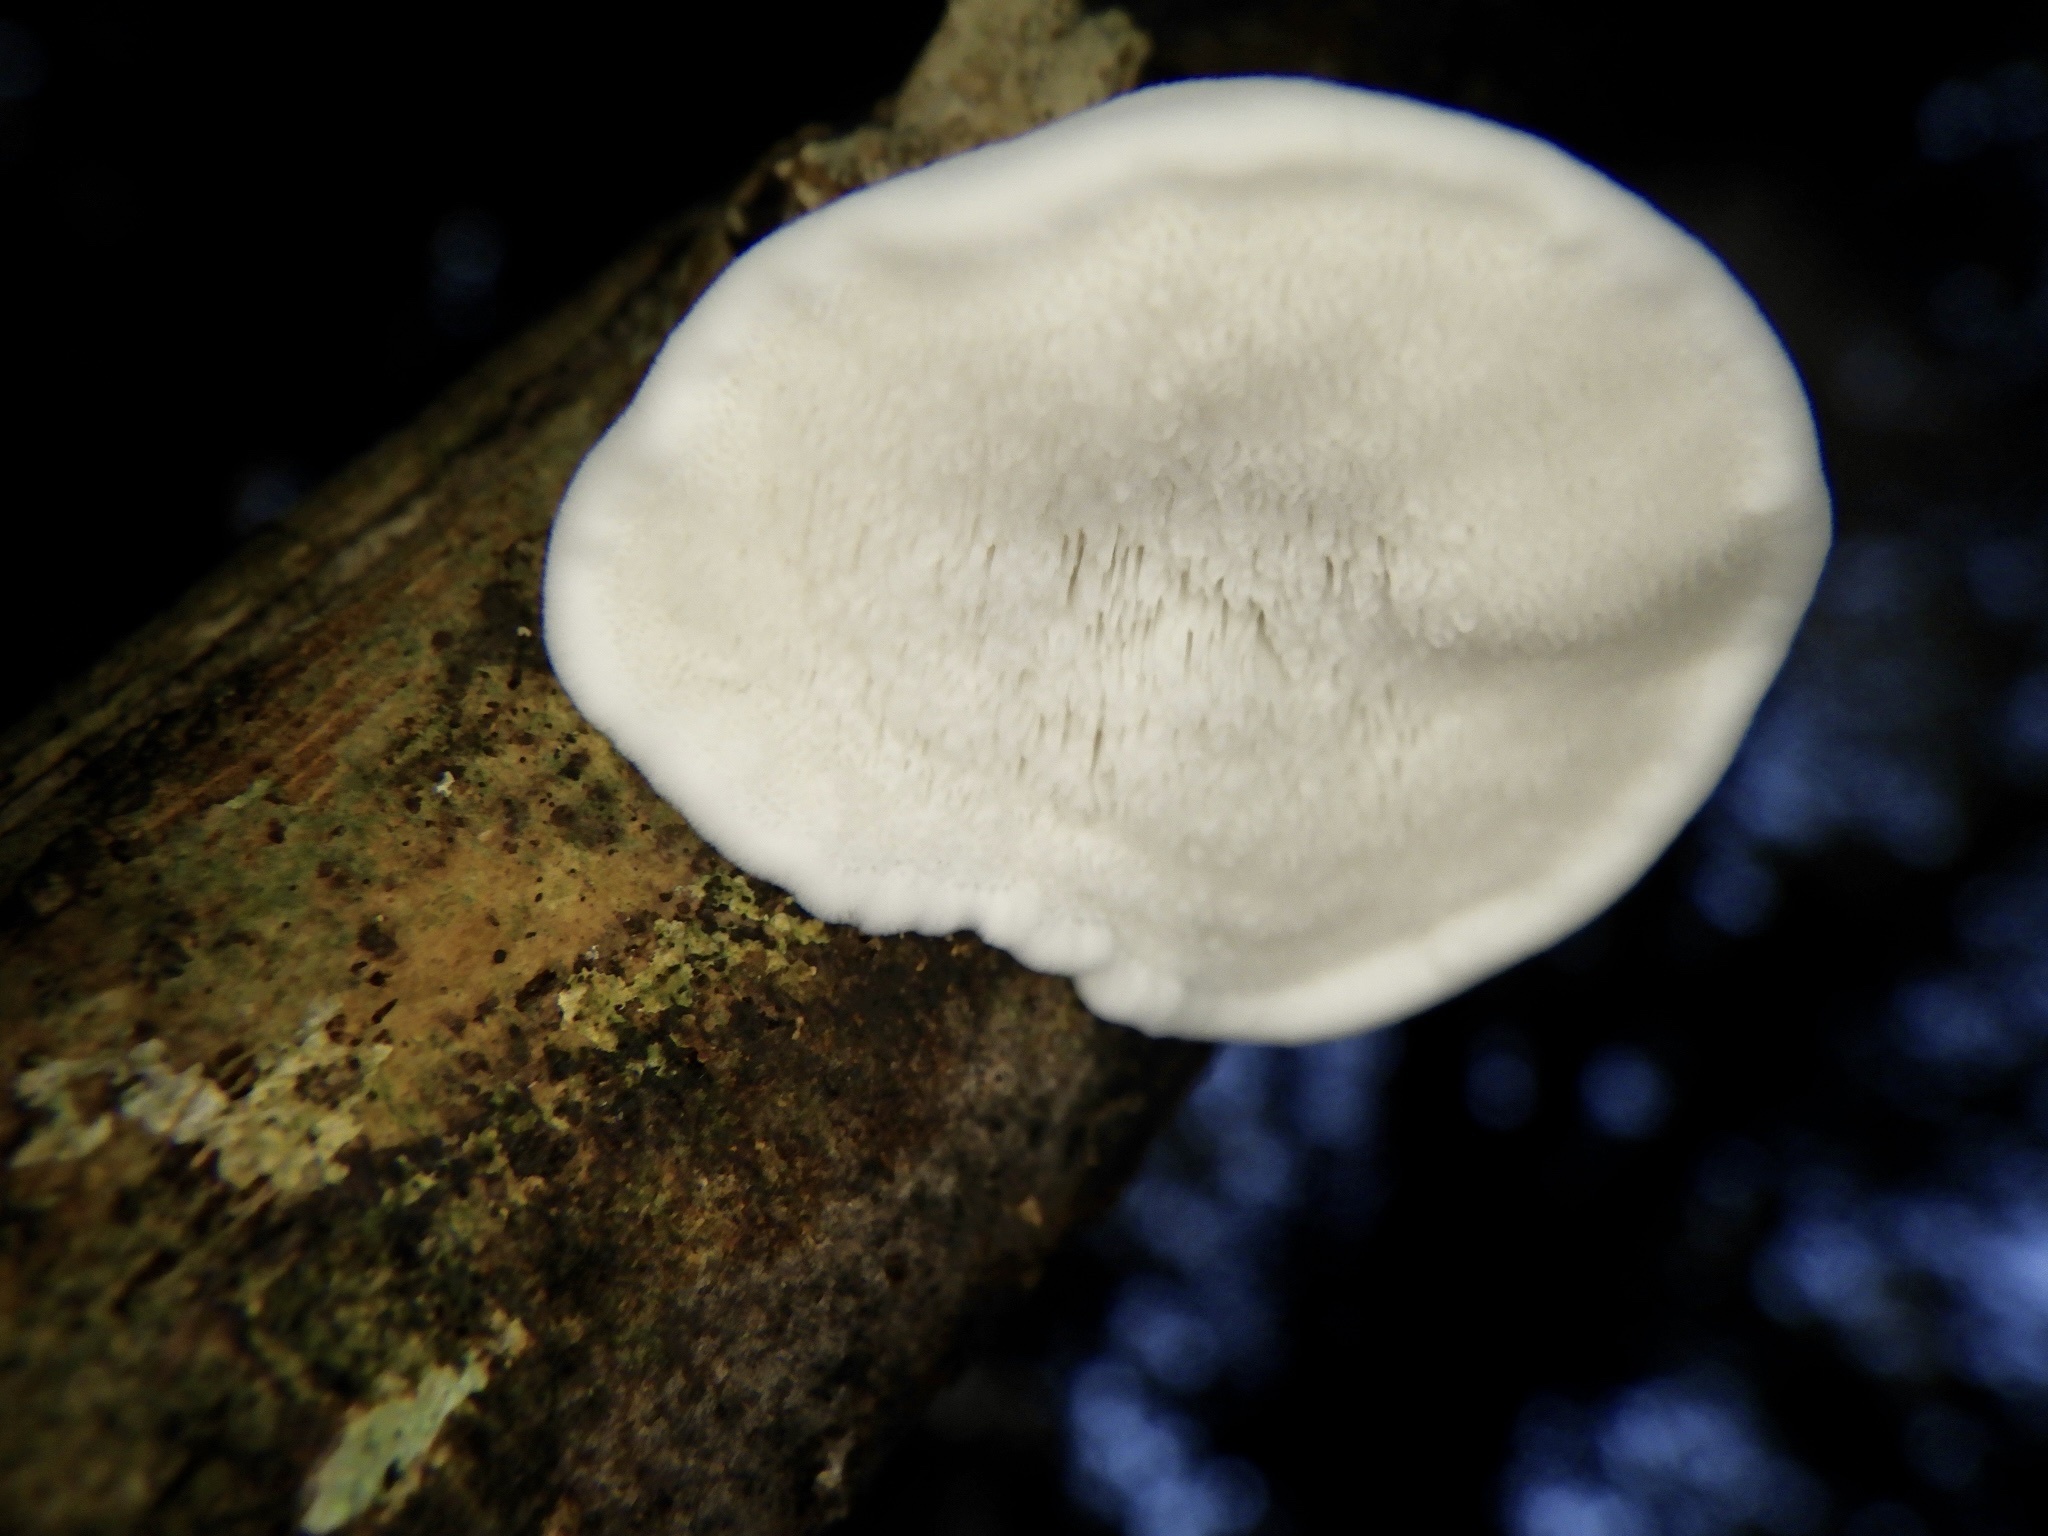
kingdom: Fungi
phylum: Basidiomycota
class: Agaricomycetes
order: Polyporales
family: Incrustoporiaceae
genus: Tyromyces
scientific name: Tyromyces chioneus
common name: White cheese polypore
